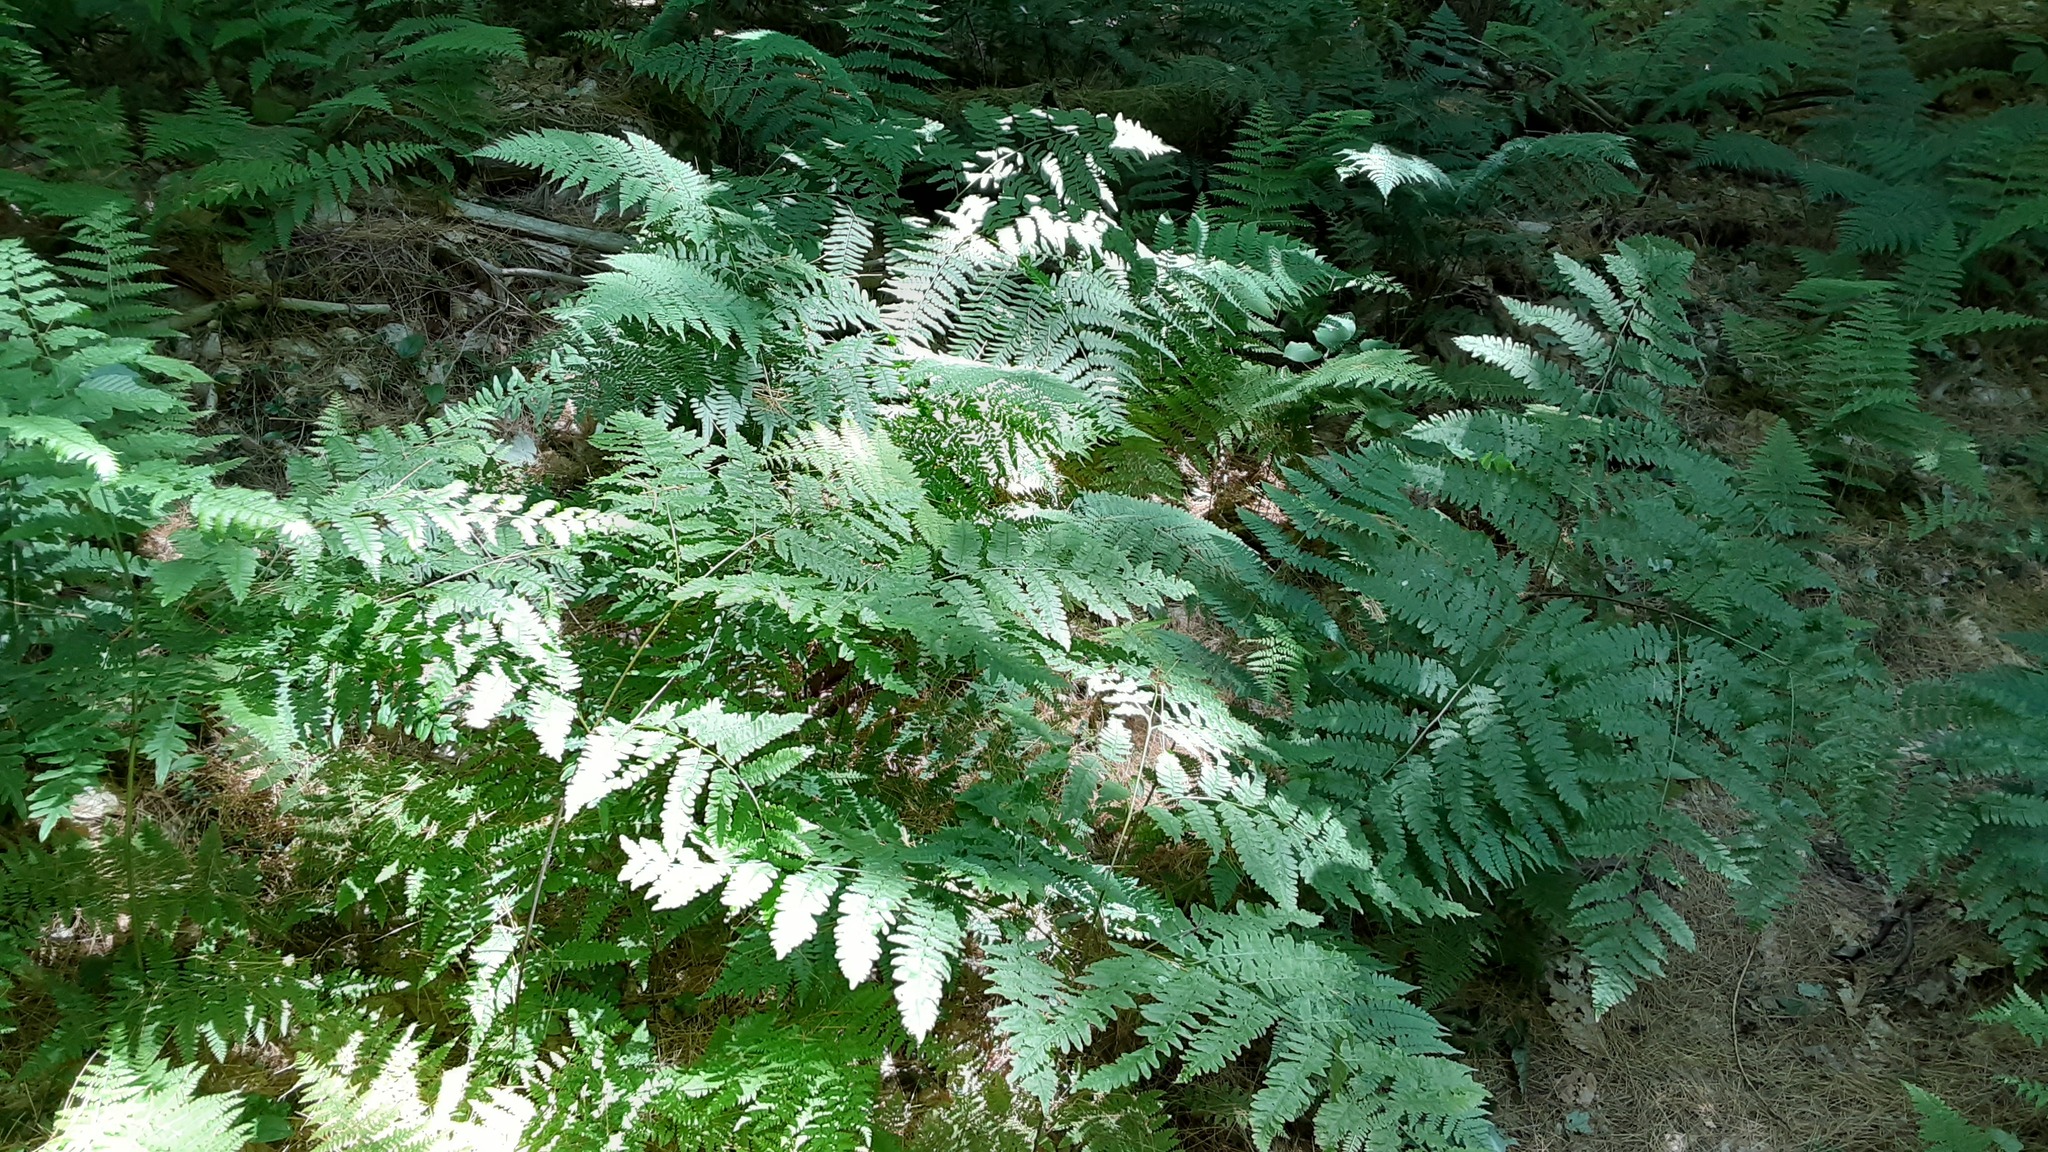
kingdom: Plantae
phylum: Tracheophyta
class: Polypodiopsida
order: Polypodiales
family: Dennstaedtiaceae
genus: Pteridium
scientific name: Pteridium aquilinum
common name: Bracken
